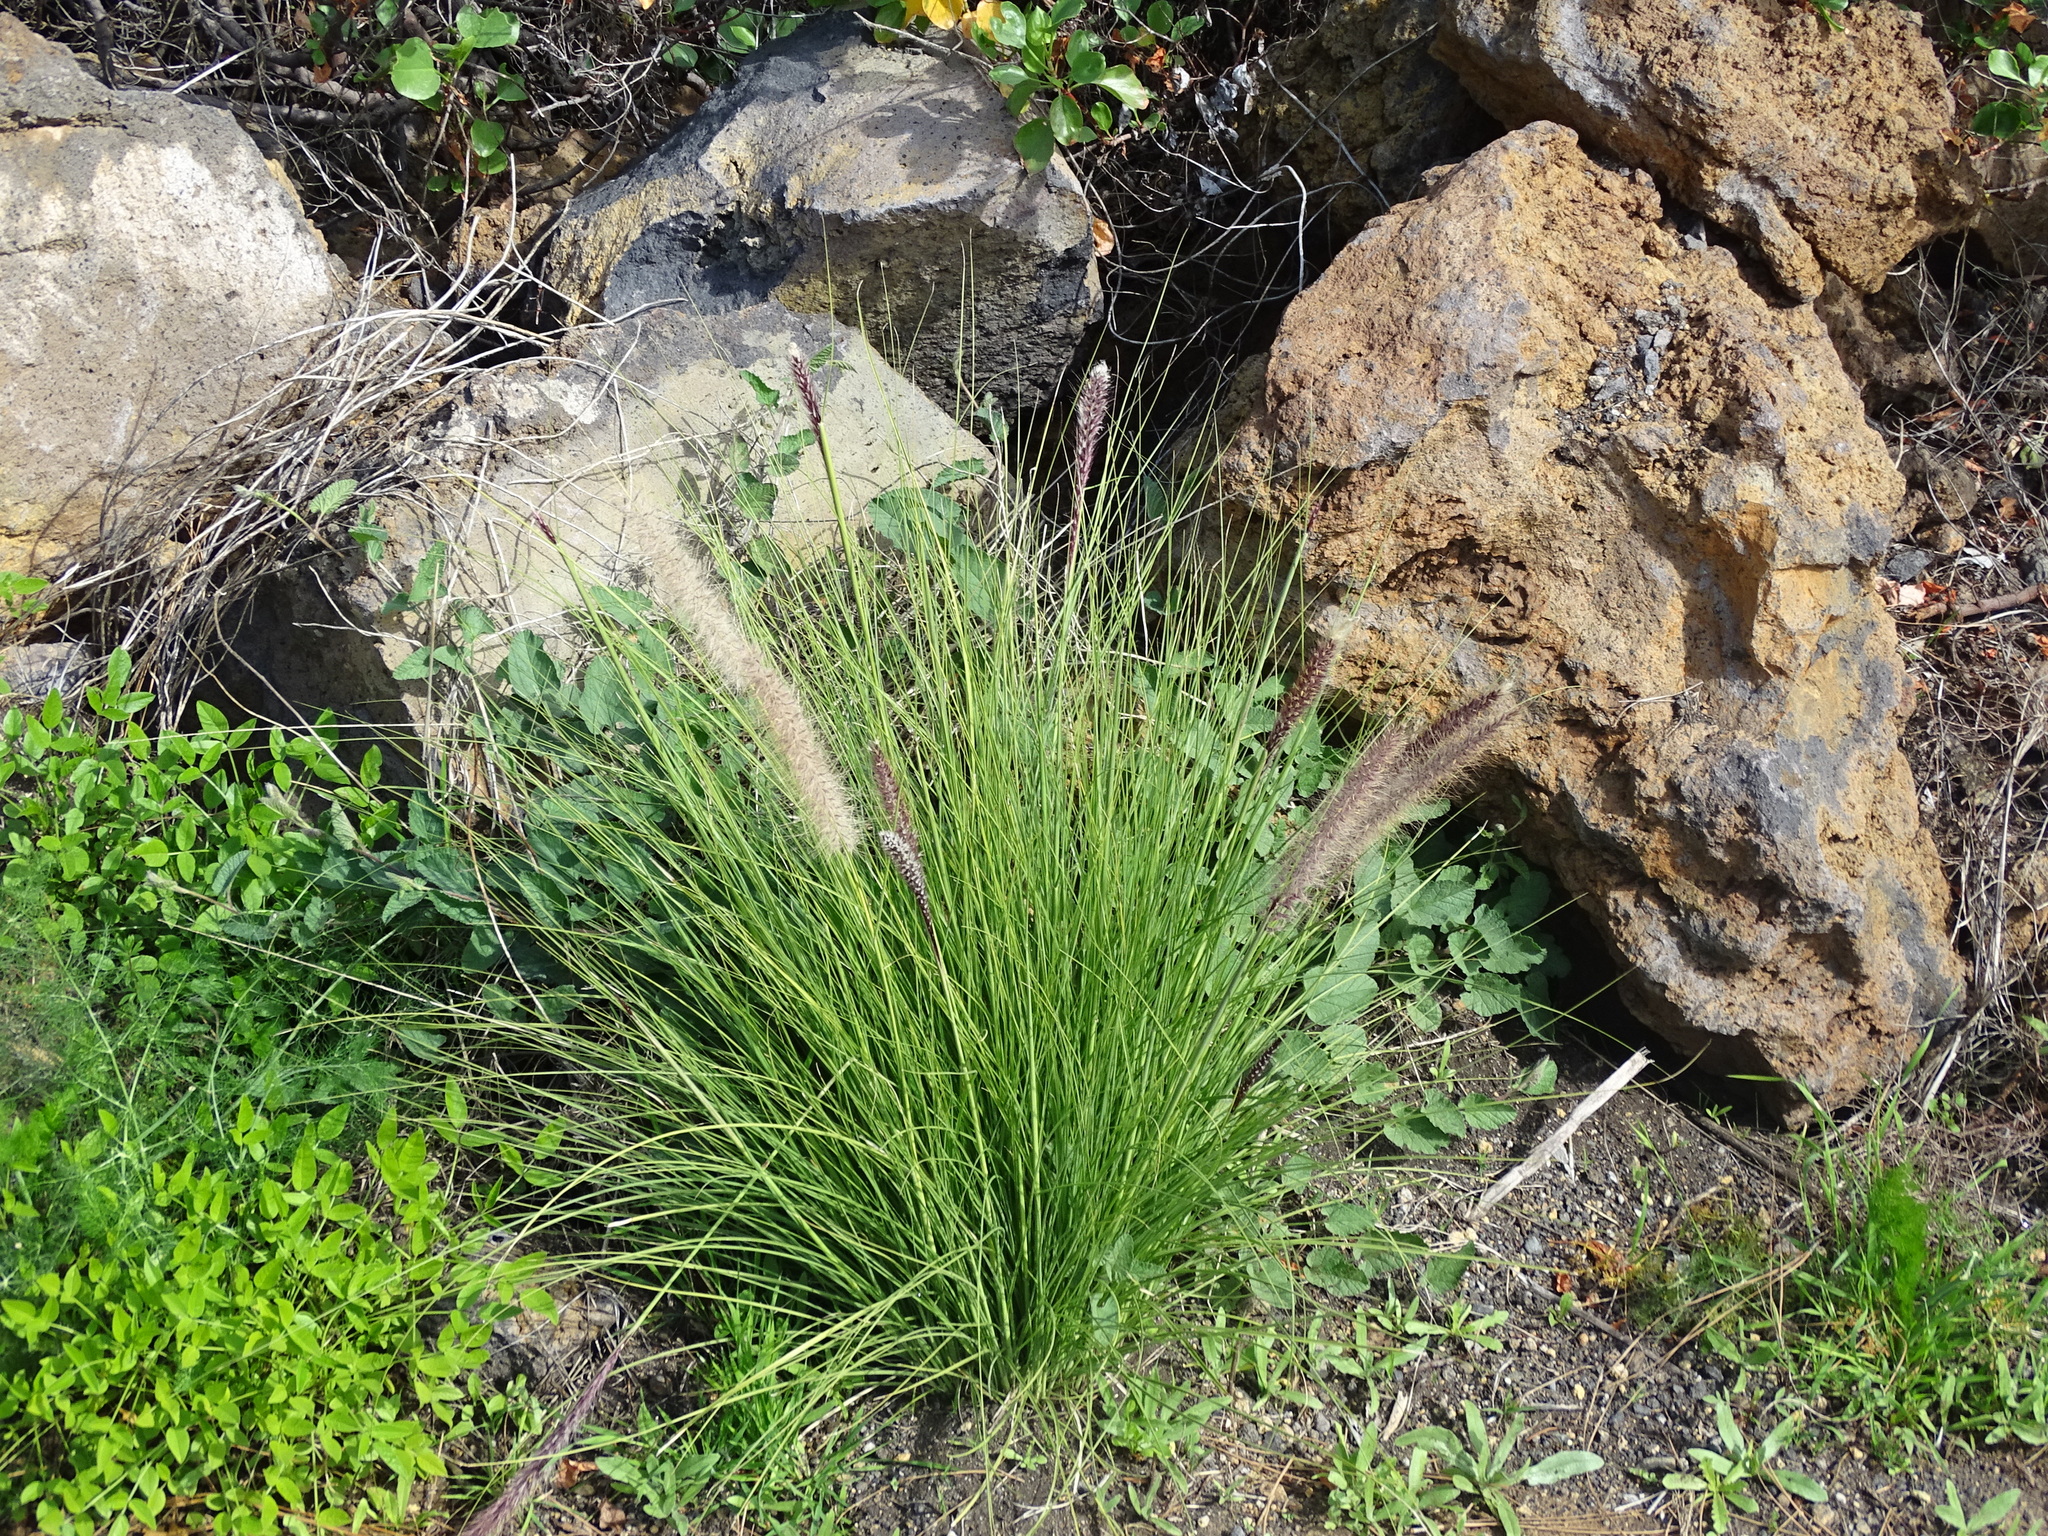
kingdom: Plantae
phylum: Tracheophyta
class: Liliopsida
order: Poales
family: Poaceae
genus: Cenchrus
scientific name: Cenchrus setaceus
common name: Crimson fountaingrass
